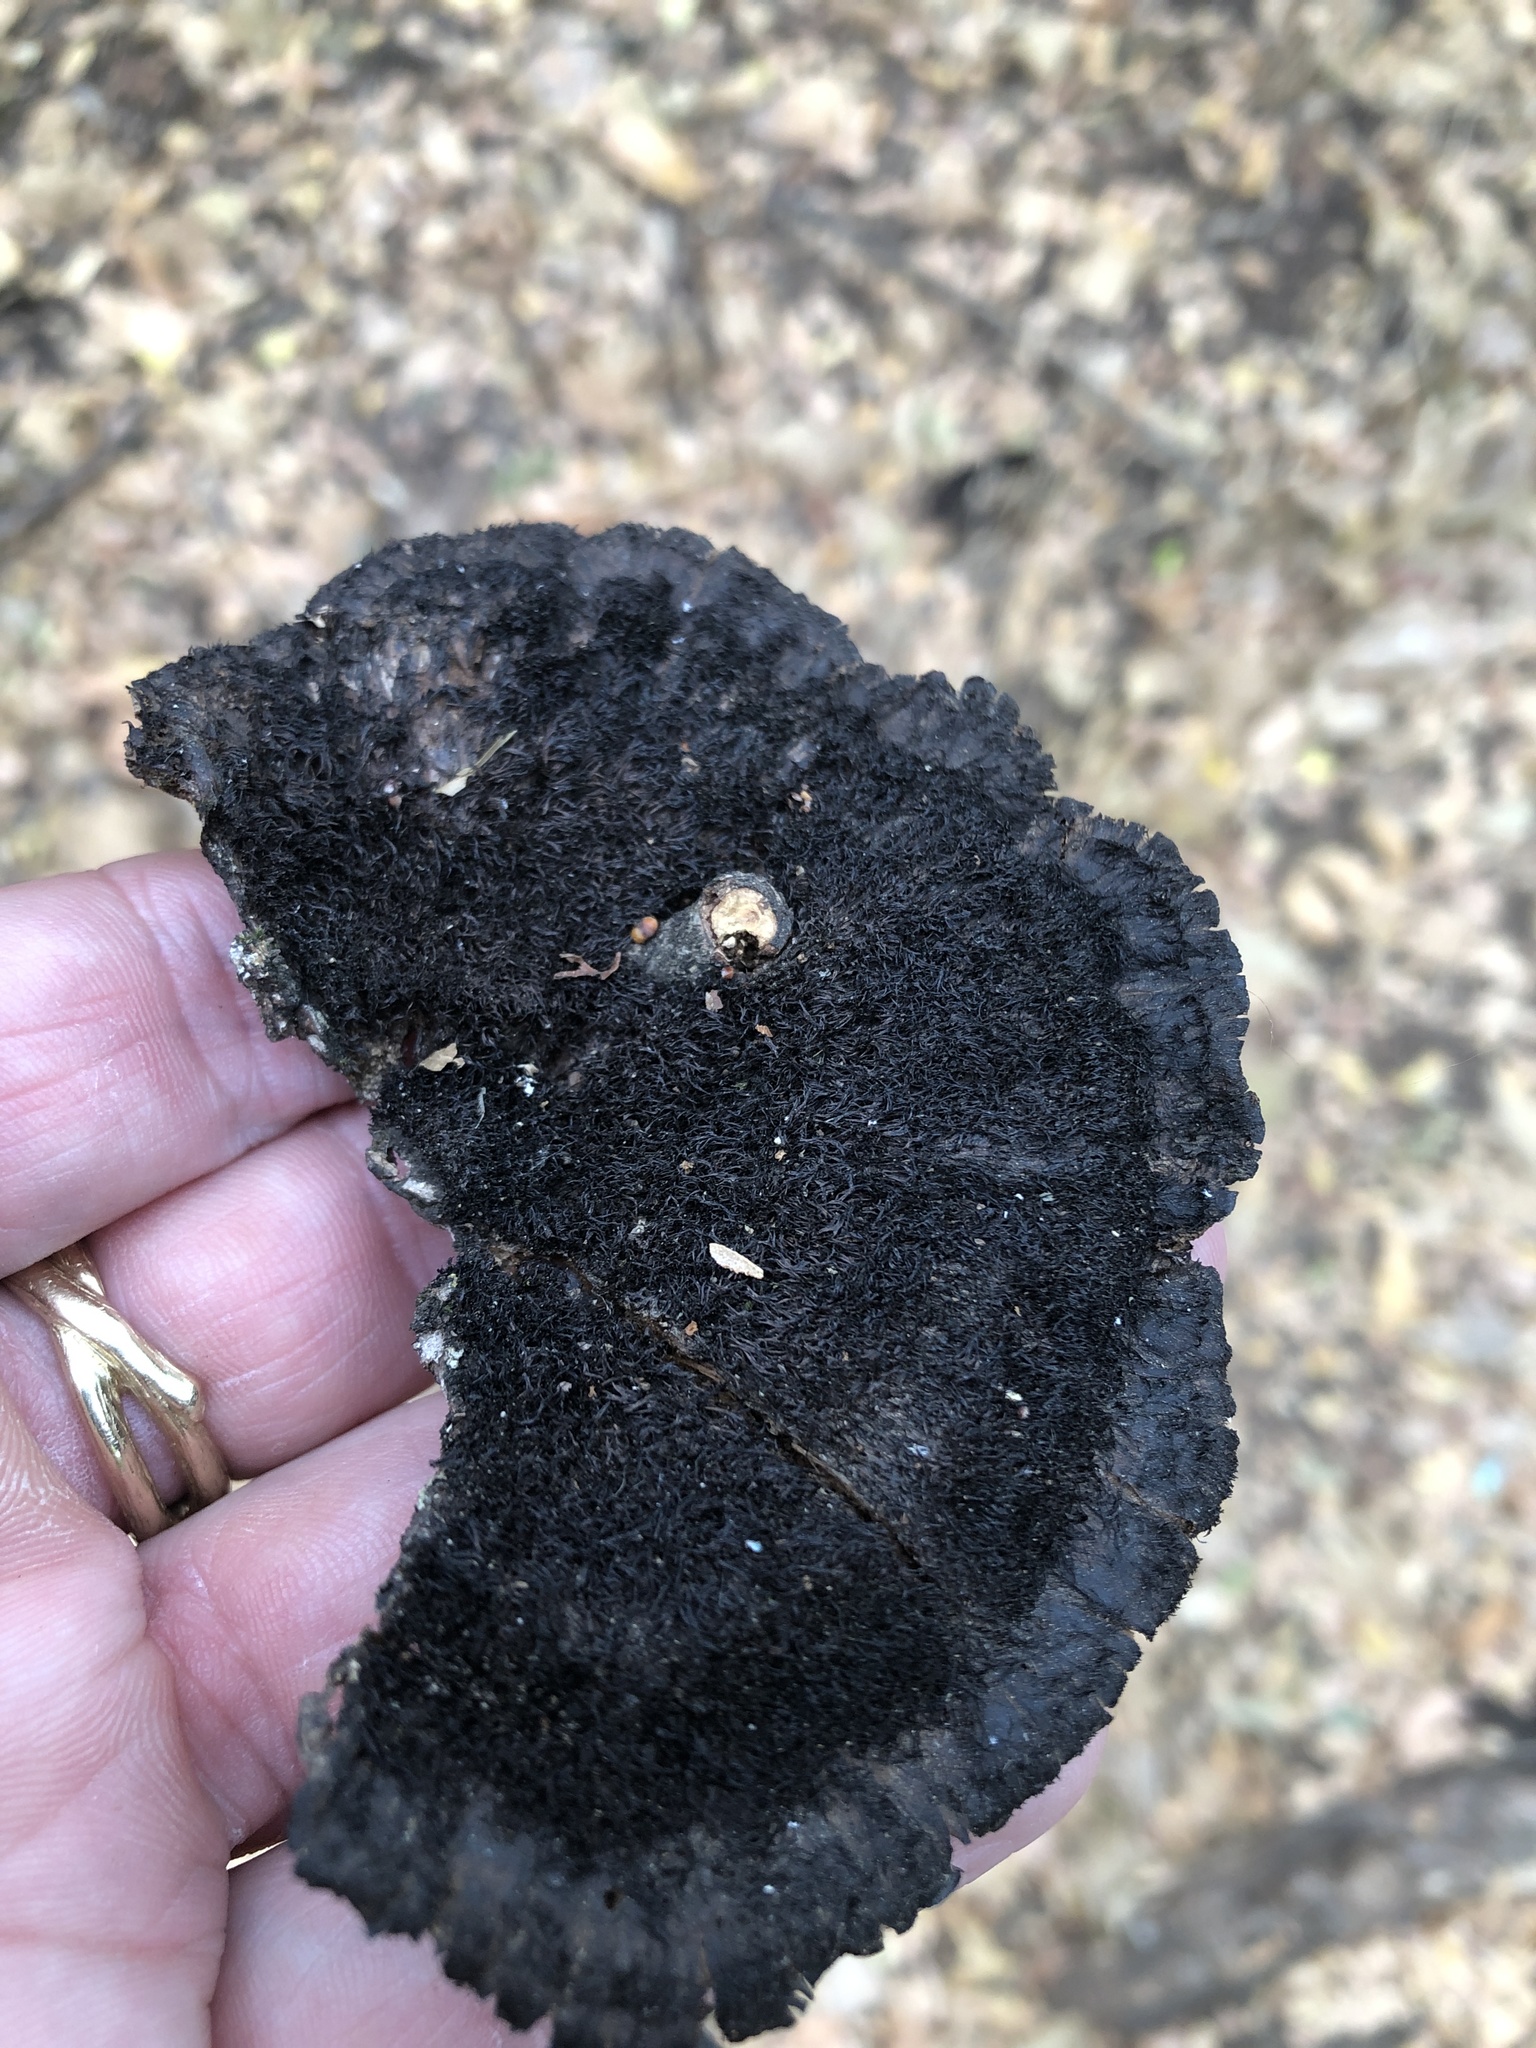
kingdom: Fungi
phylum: Basidiomycota
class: Agaricomycetes
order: Polyporales
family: Cerrenaceae
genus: Cerrena
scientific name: Cerrena hydnoides
